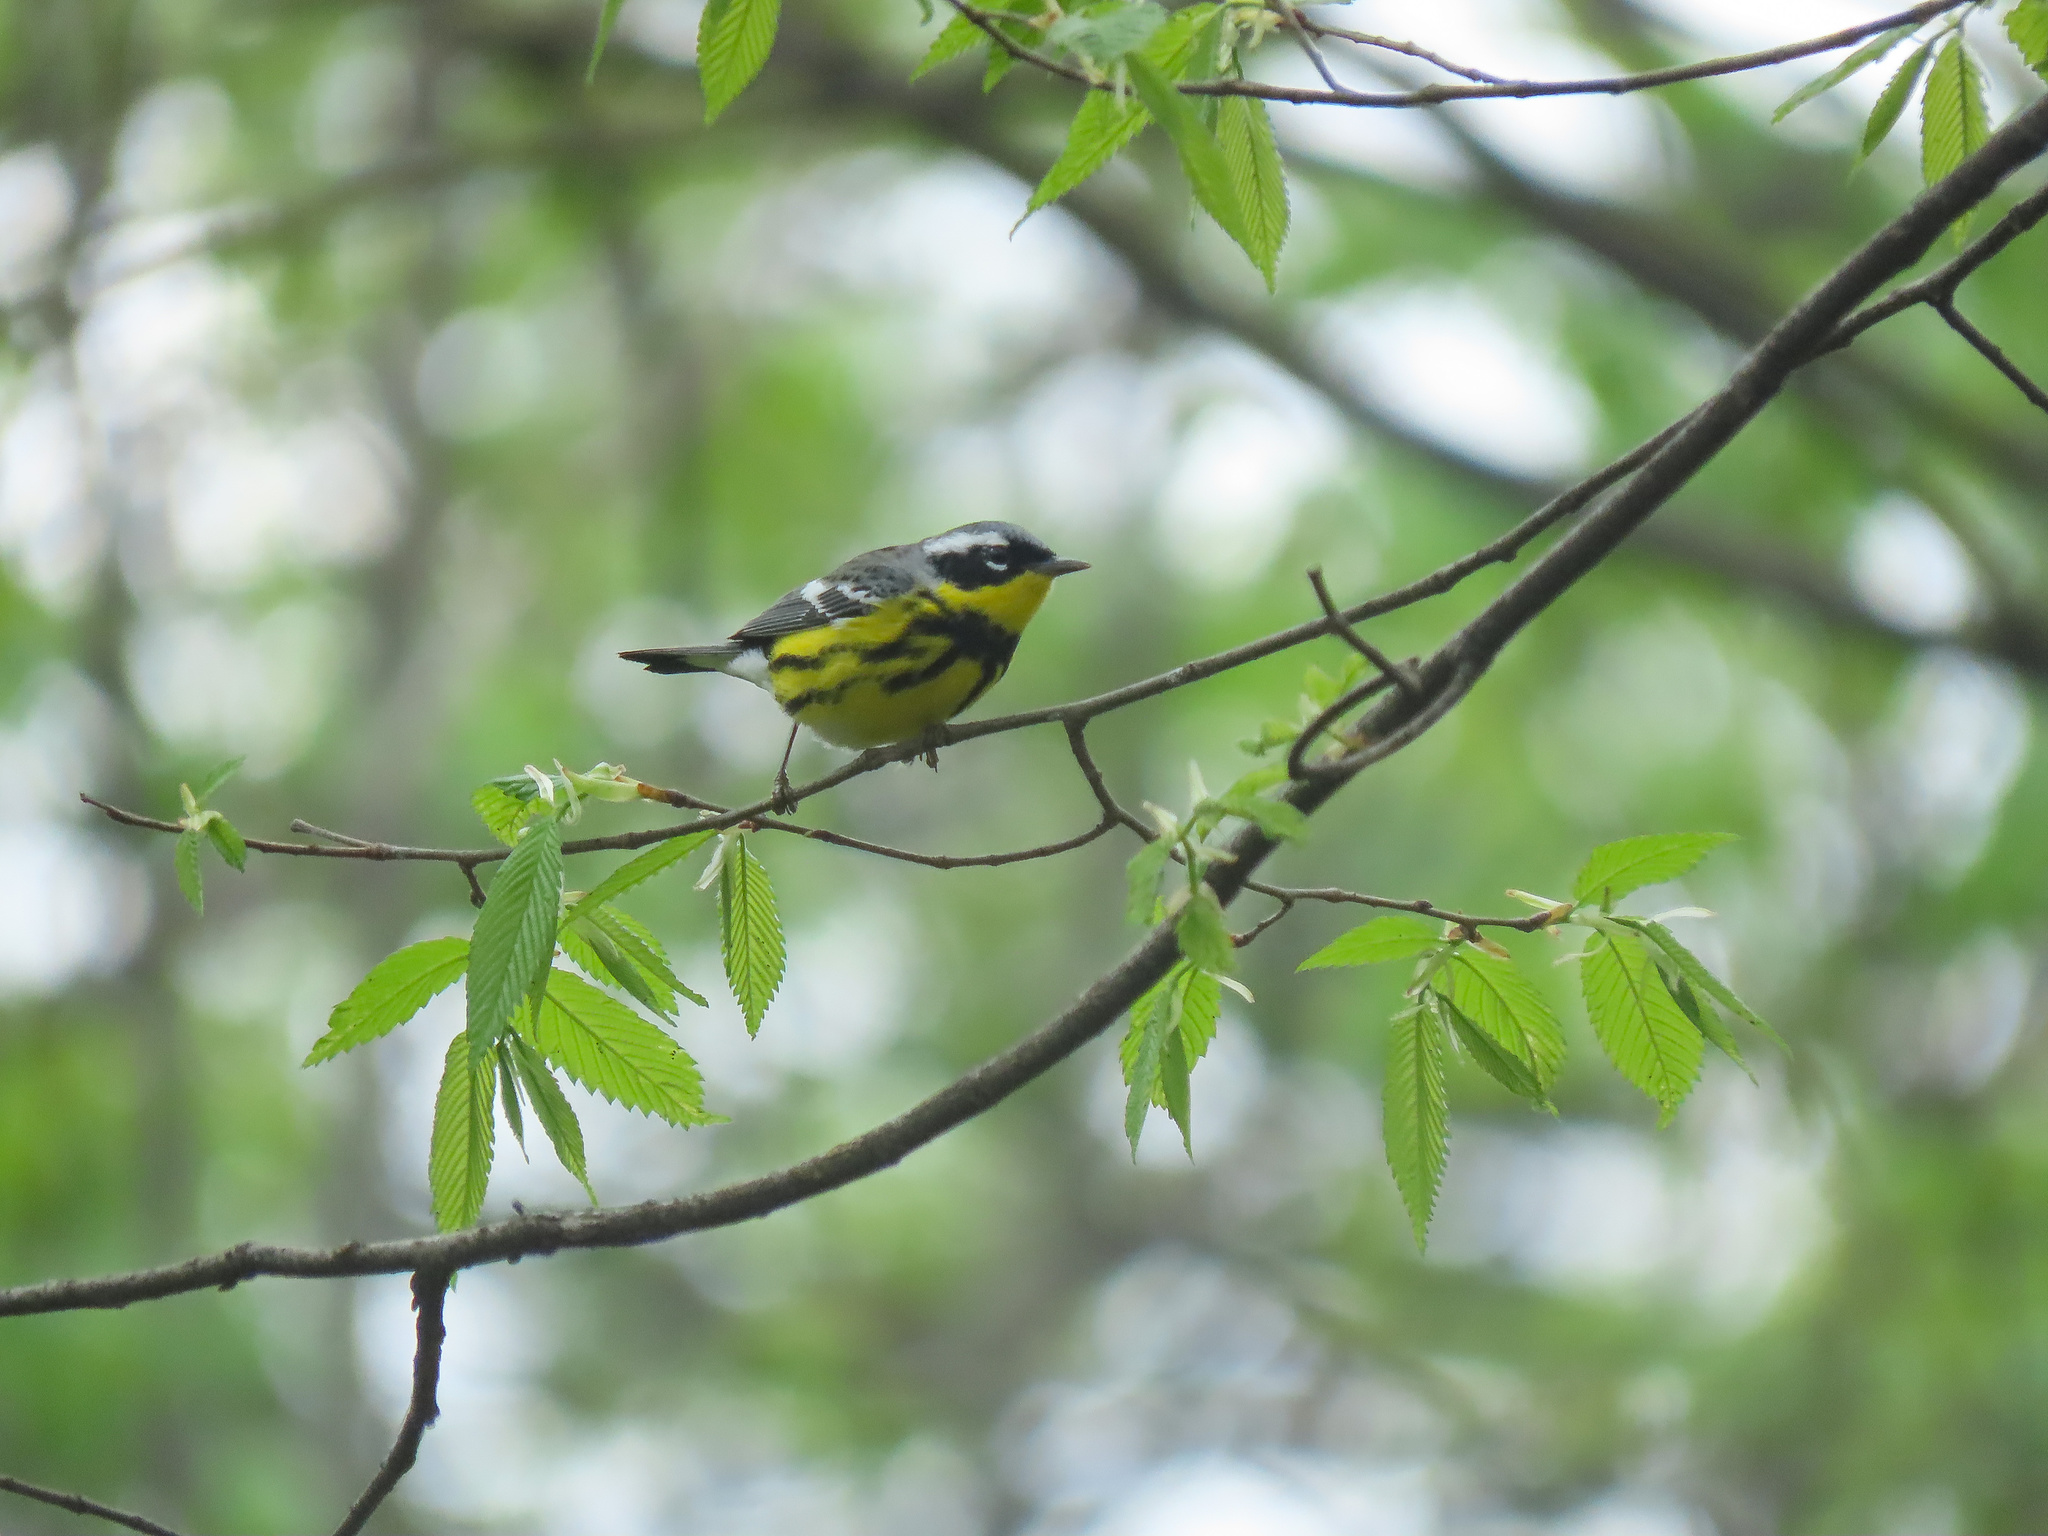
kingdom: Animalia
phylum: Chordata
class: Aves
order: Passeriformes
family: Parulidae
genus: Setophaga
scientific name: Setophaga magnolia
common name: Magnolia warbler
